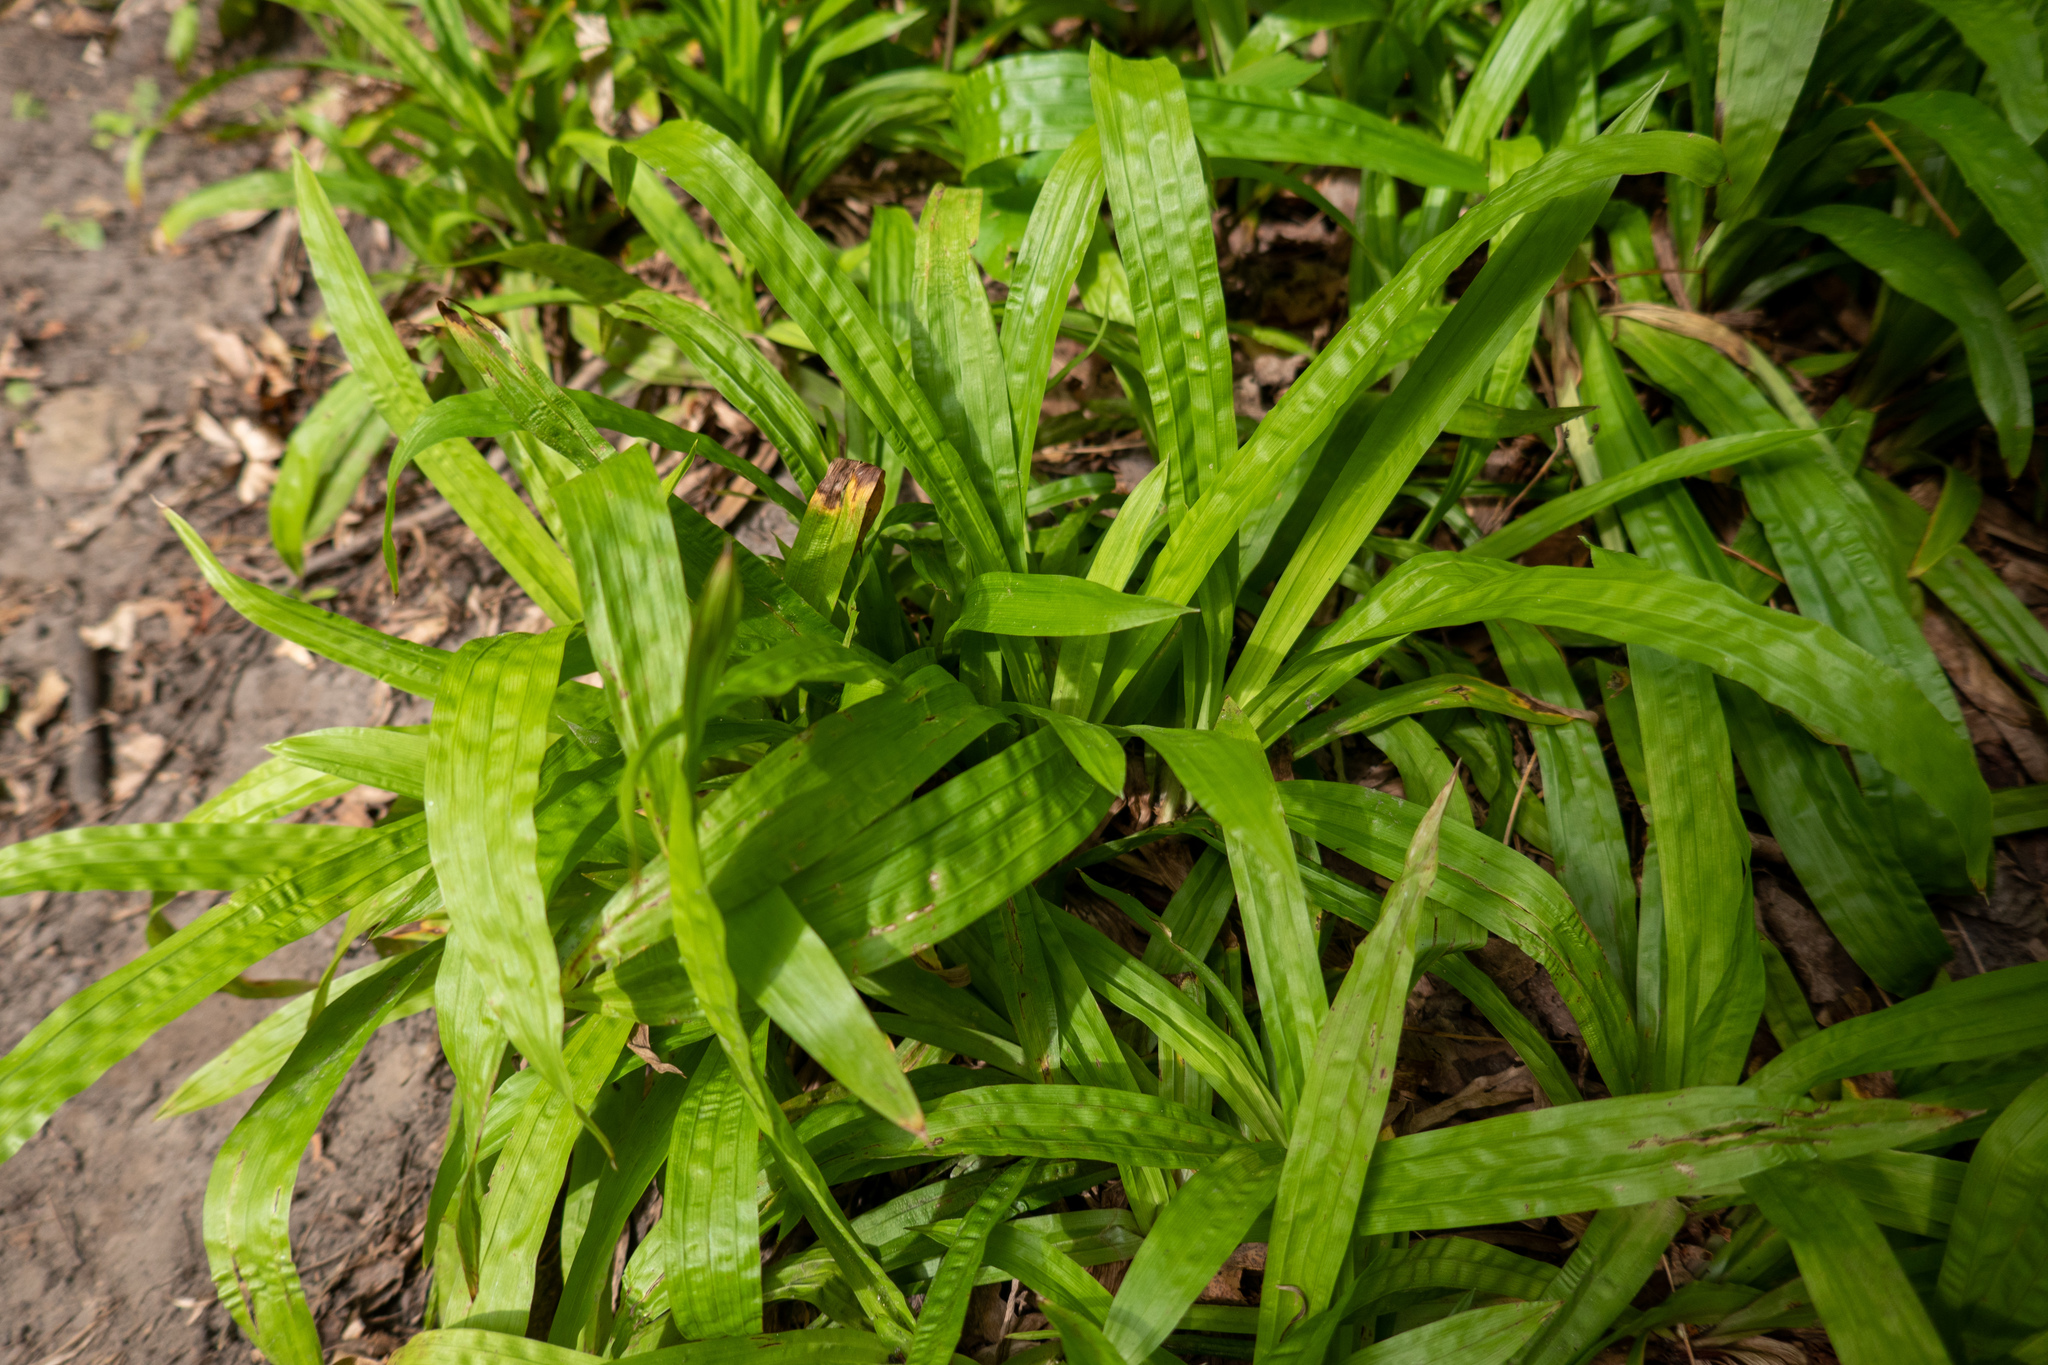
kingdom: Plantae
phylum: Tracheophyta
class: Liliopsida
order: Poales
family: Cyperaceae
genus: Carex
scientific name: Carex plantaginea
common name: Plantain-leaved sedge
